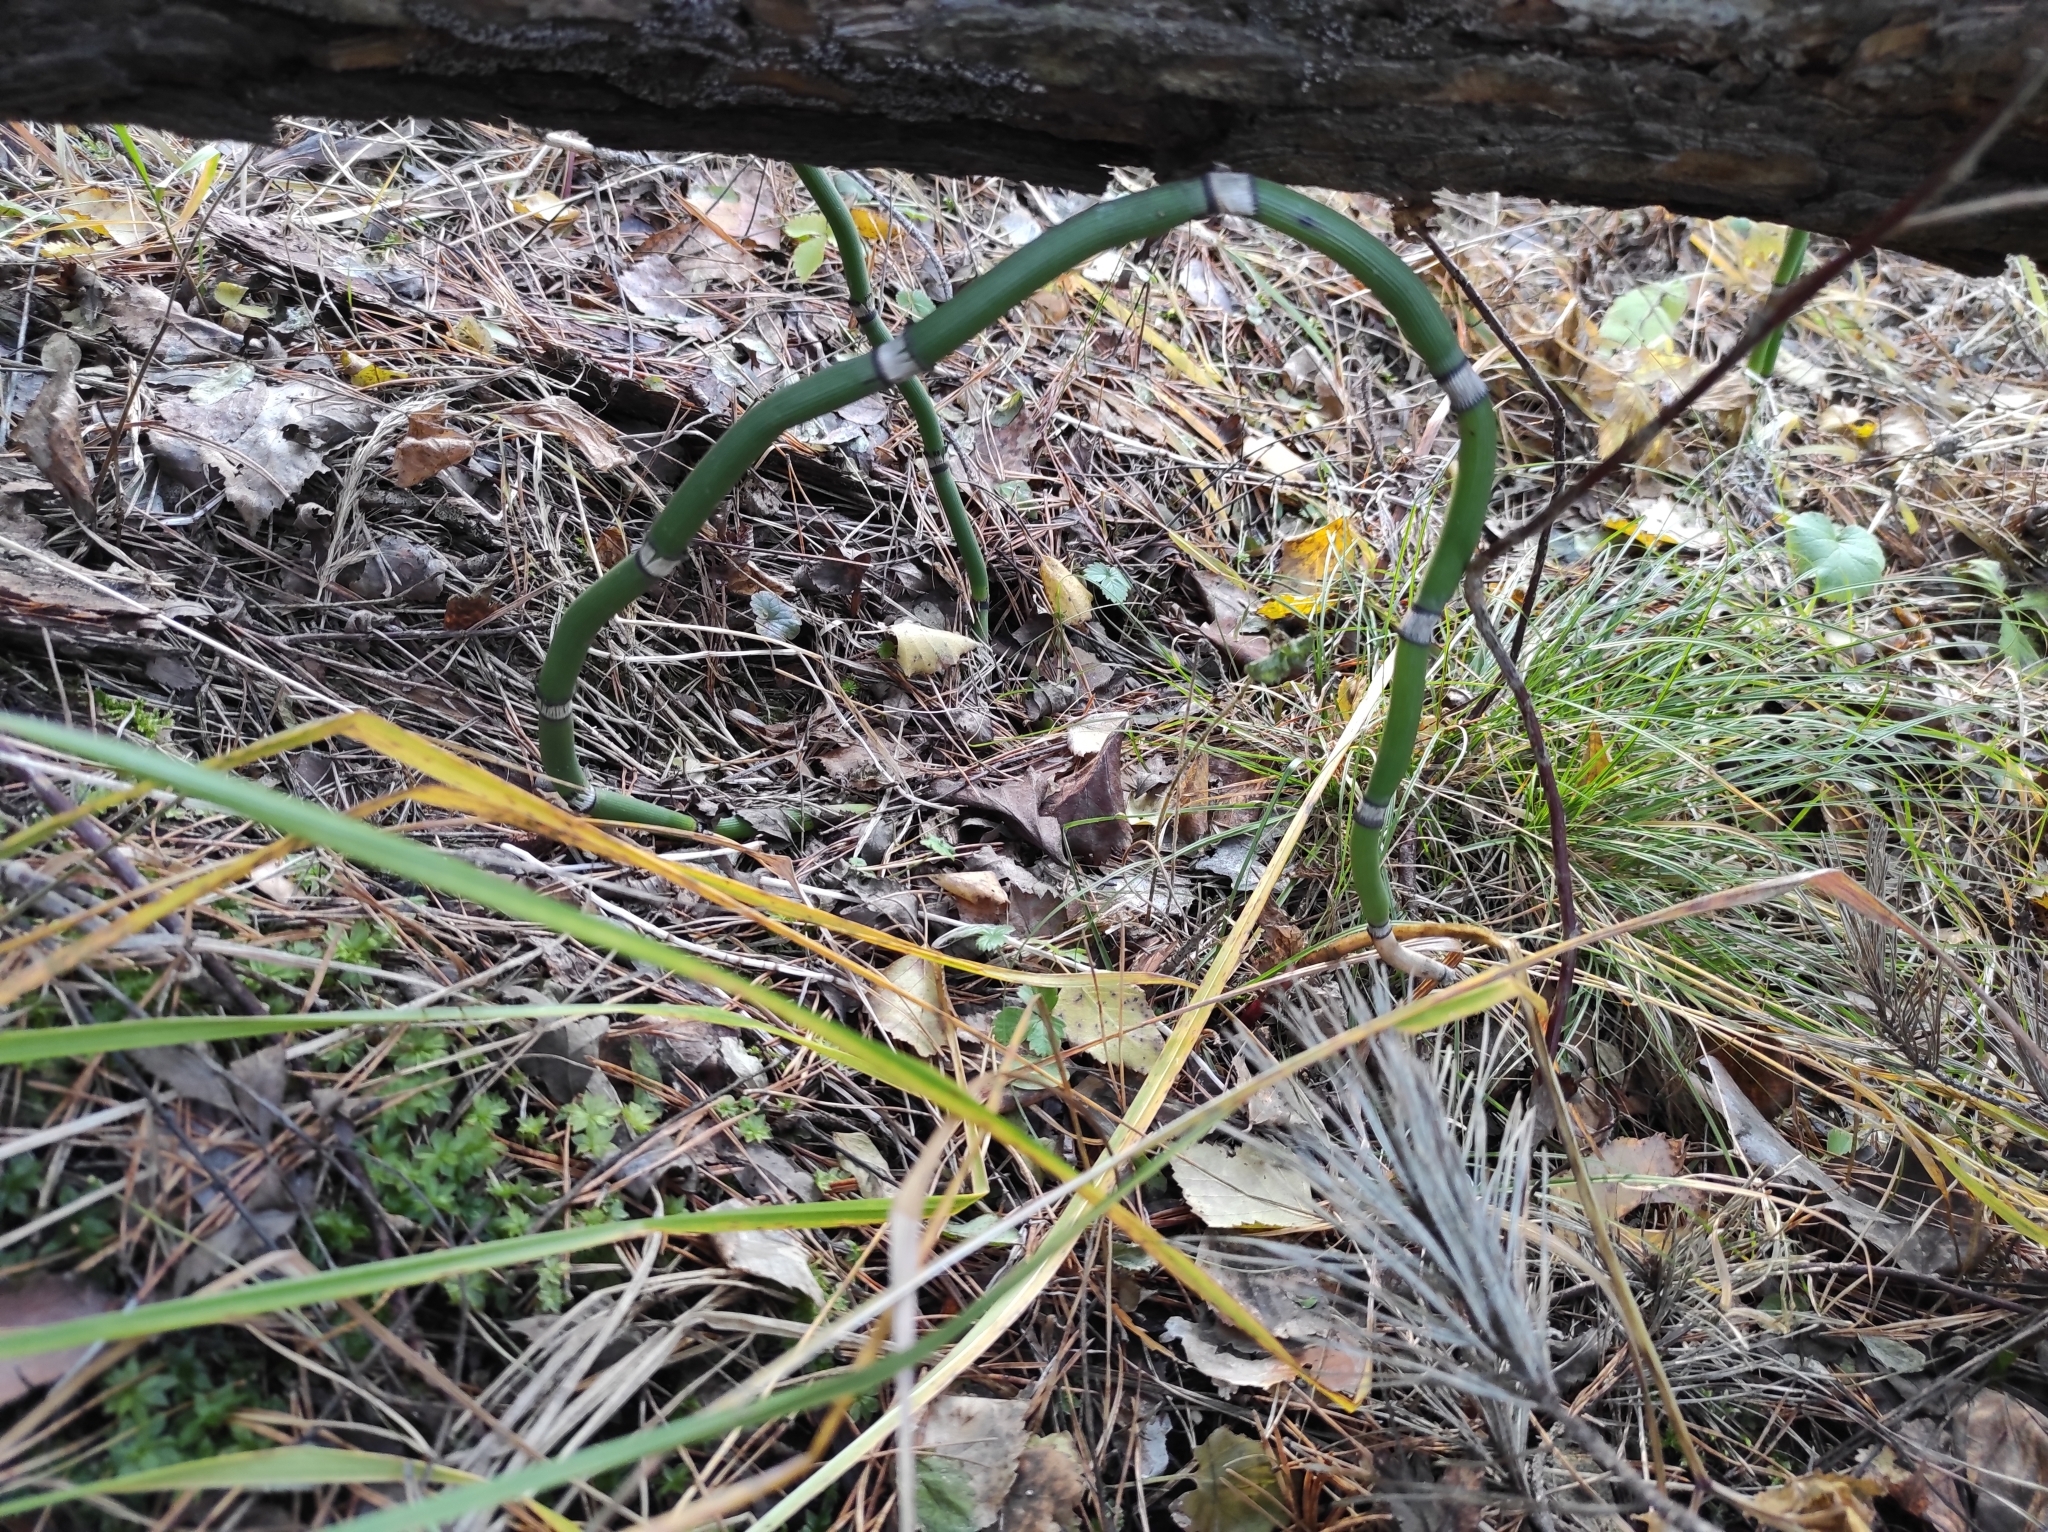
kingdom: Plantae
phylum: Tracheophyta
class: Polypodiopsida
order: Equisetales
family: Equisetaceae
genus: Equisetum
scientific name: Equisetum hyemale
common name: Rough horsetail
